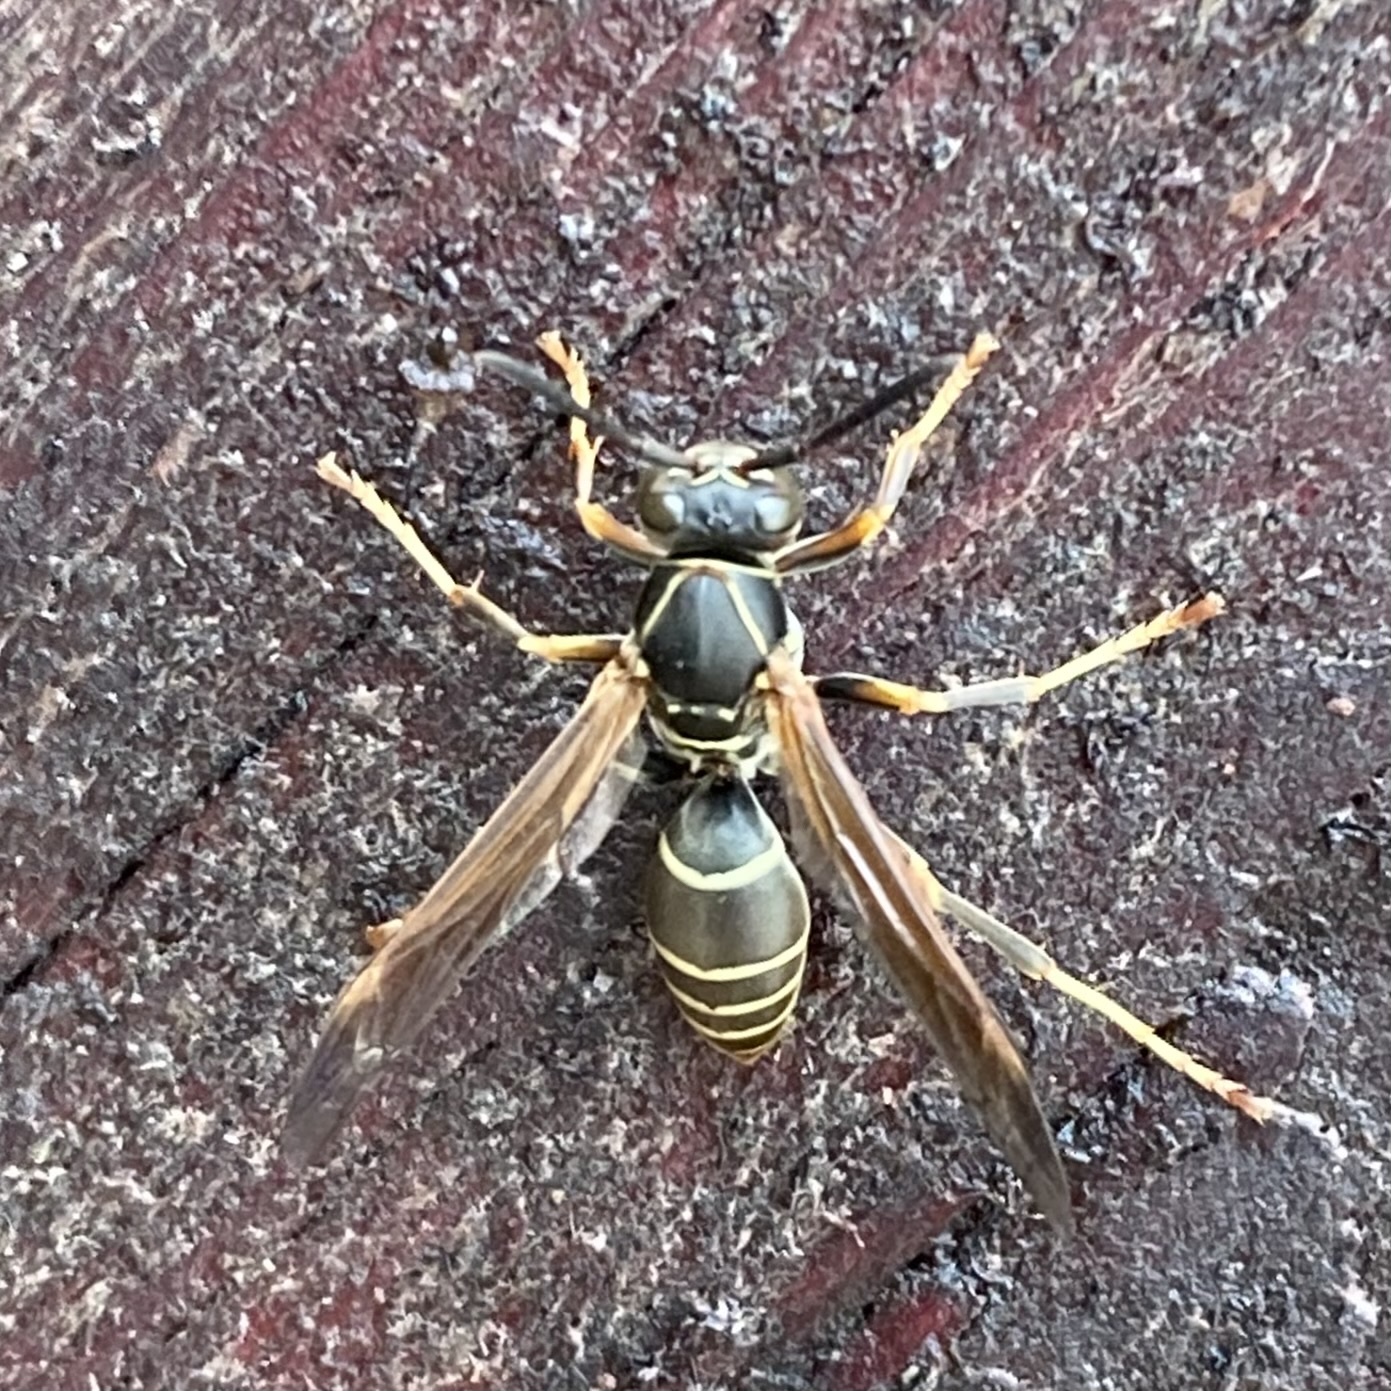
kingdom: Animalia
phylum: Arthropoda
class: Insecta
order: Hymenoptera
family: Eumenidae
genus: Polistes
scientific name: Polistes fuscatus
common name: Dark paper wasp
